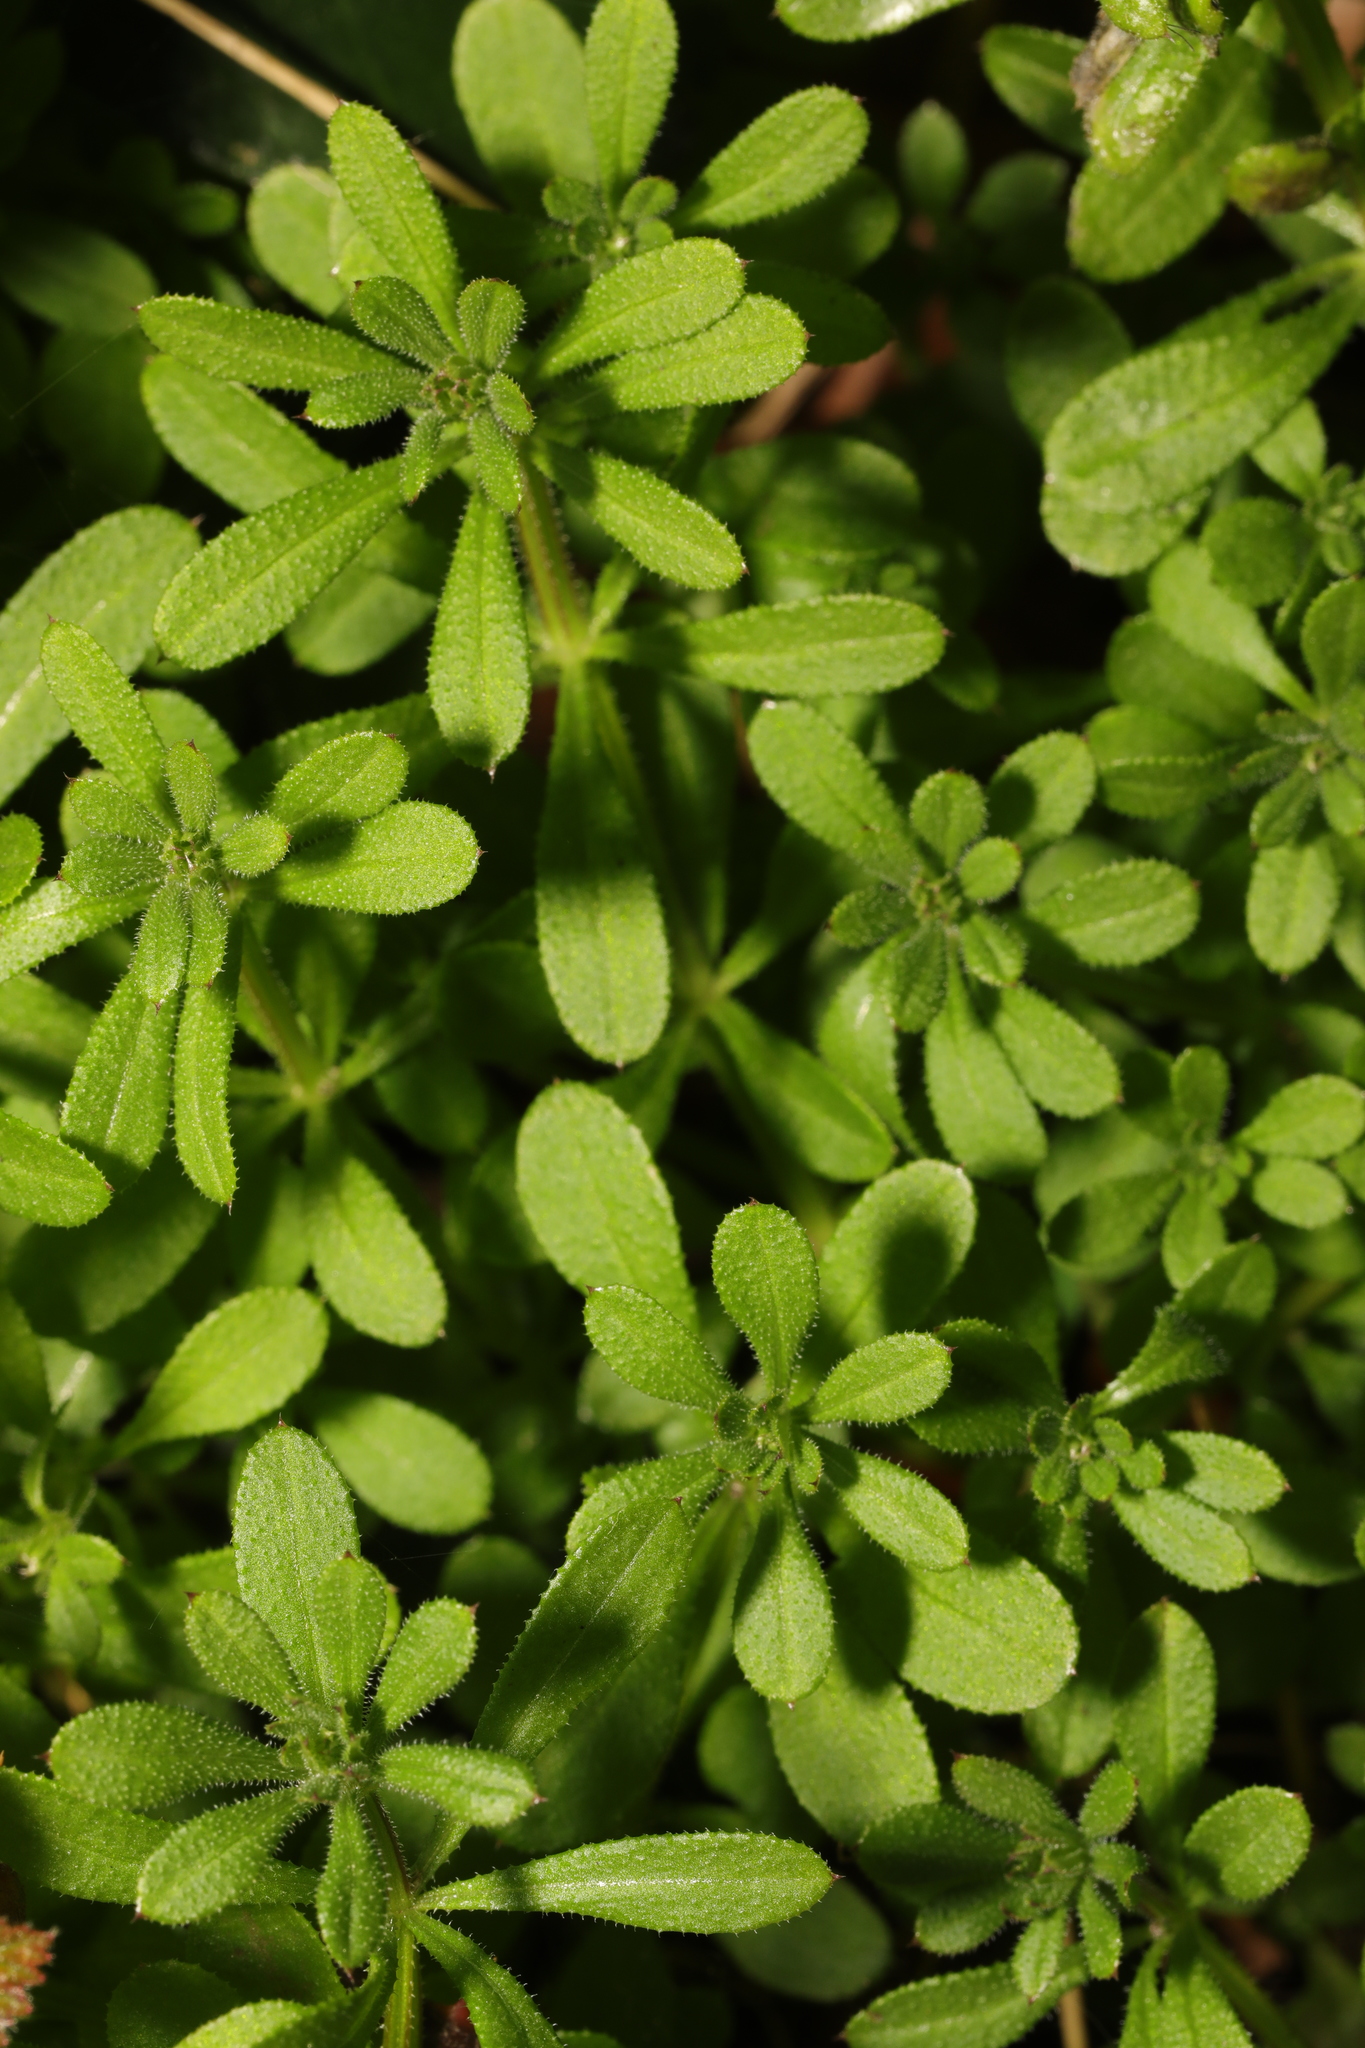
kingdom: Plantae
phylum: Tracheophyta
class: Magnoliopsida
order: Gentianales
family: Rubiaceae
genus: Galium
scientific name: Galium aparine
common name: Cleavers
